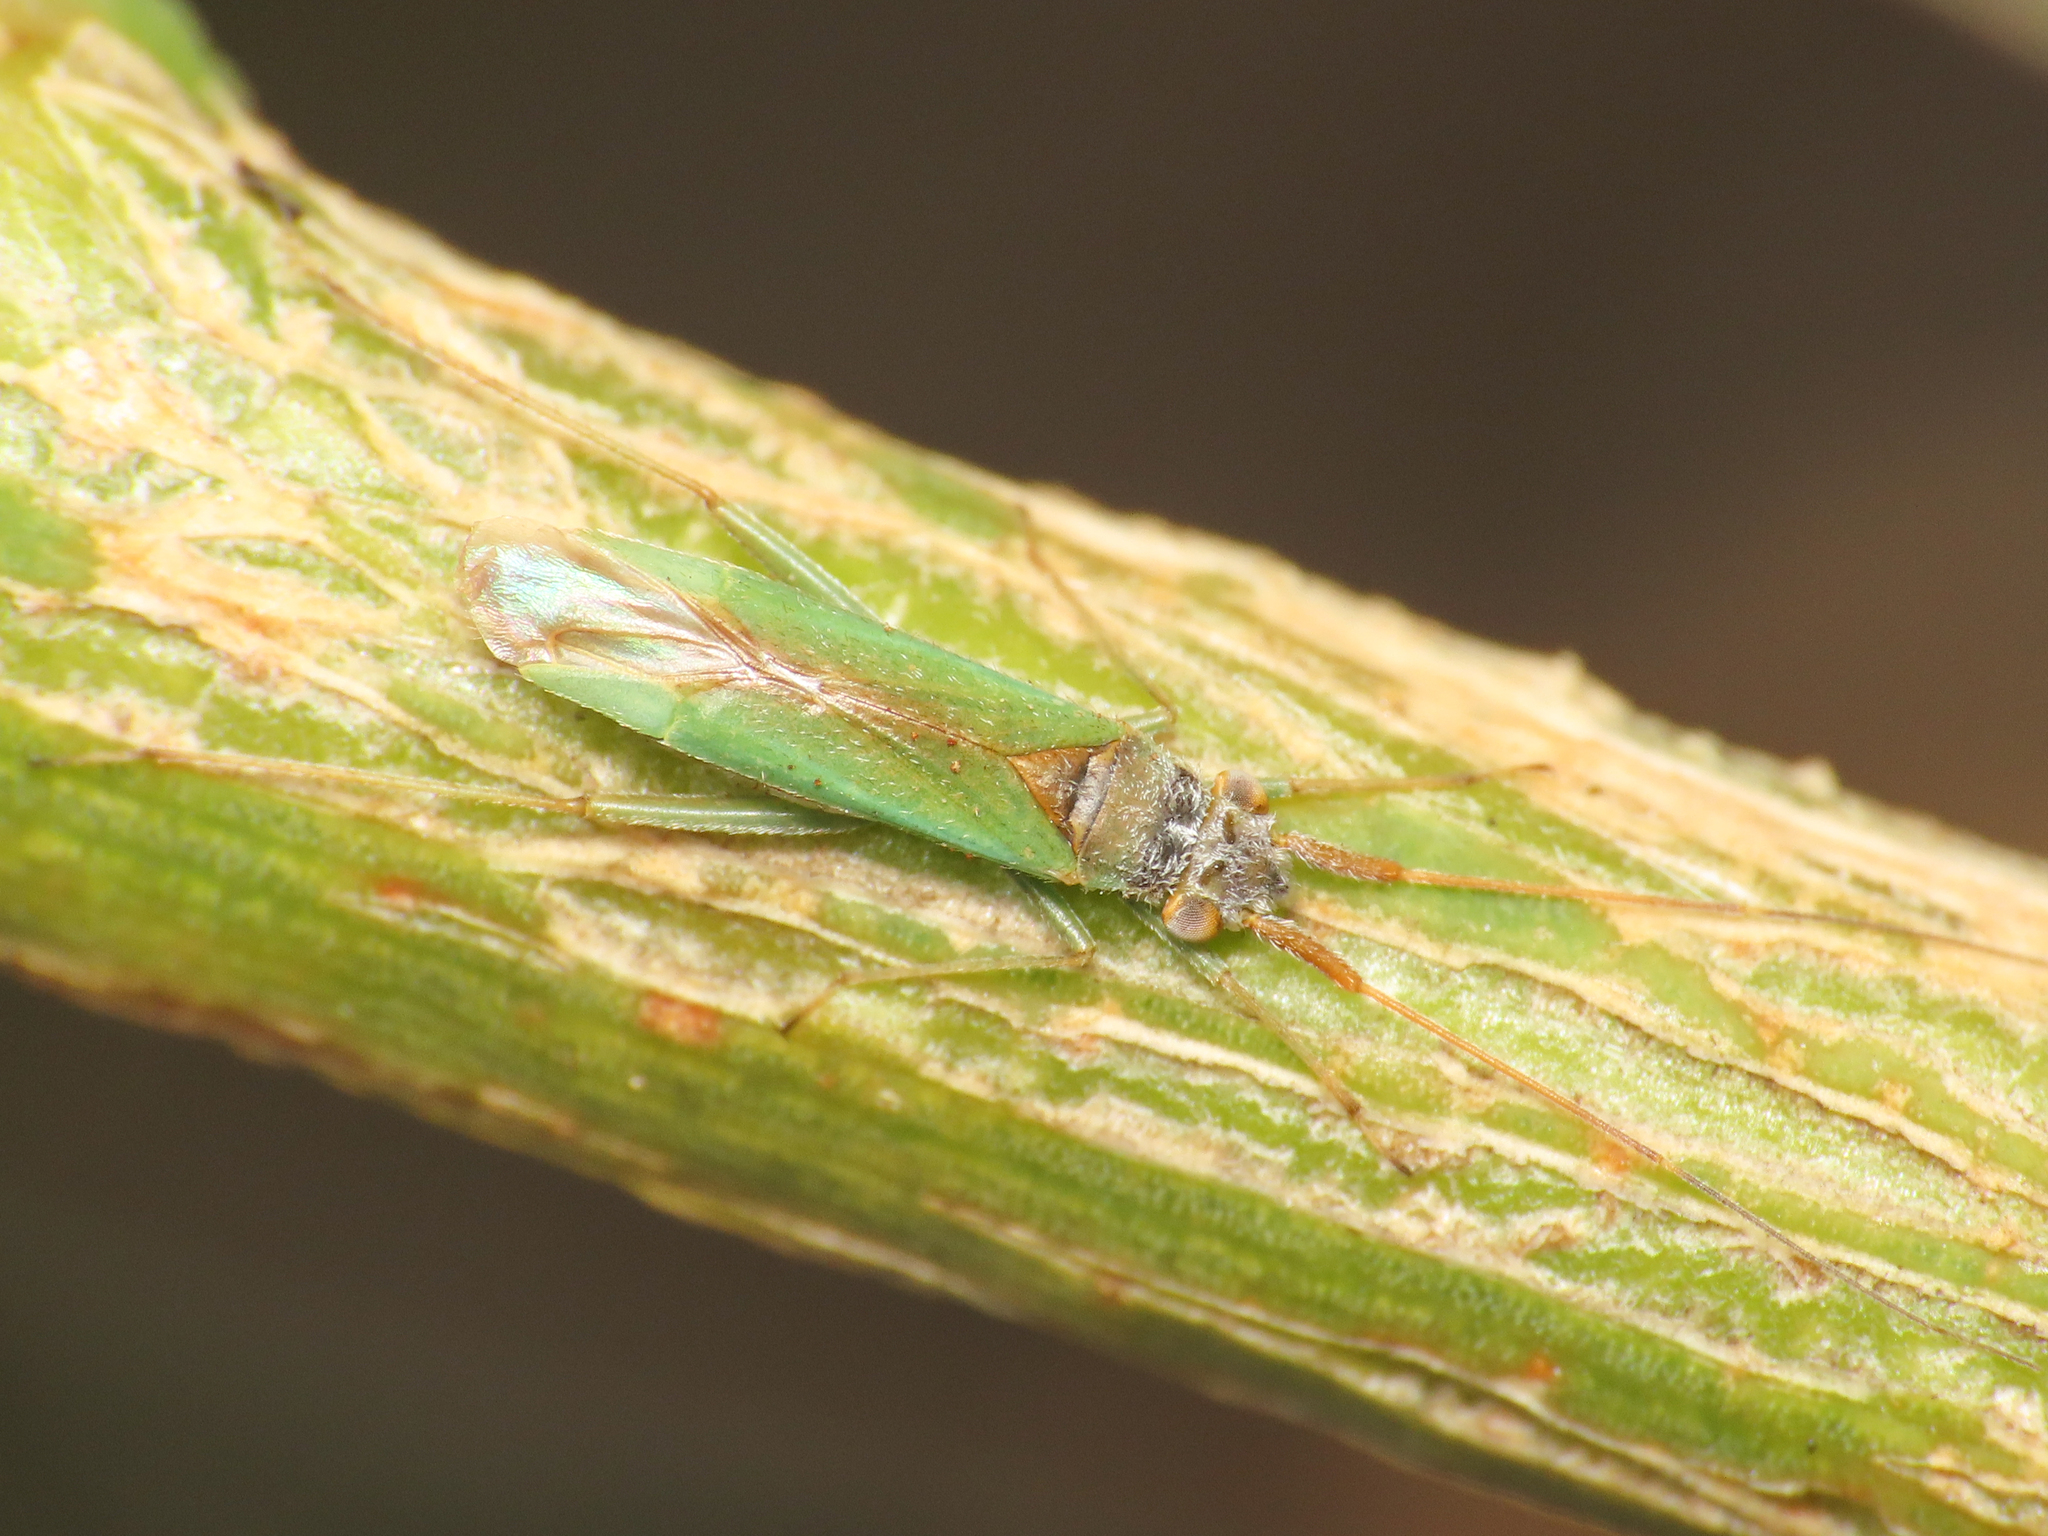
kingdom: Animalia
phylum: Arthropoda
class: Insecta
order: Hemiptera
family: Miridae
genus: Platycranus
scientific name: Platycranus erberi
